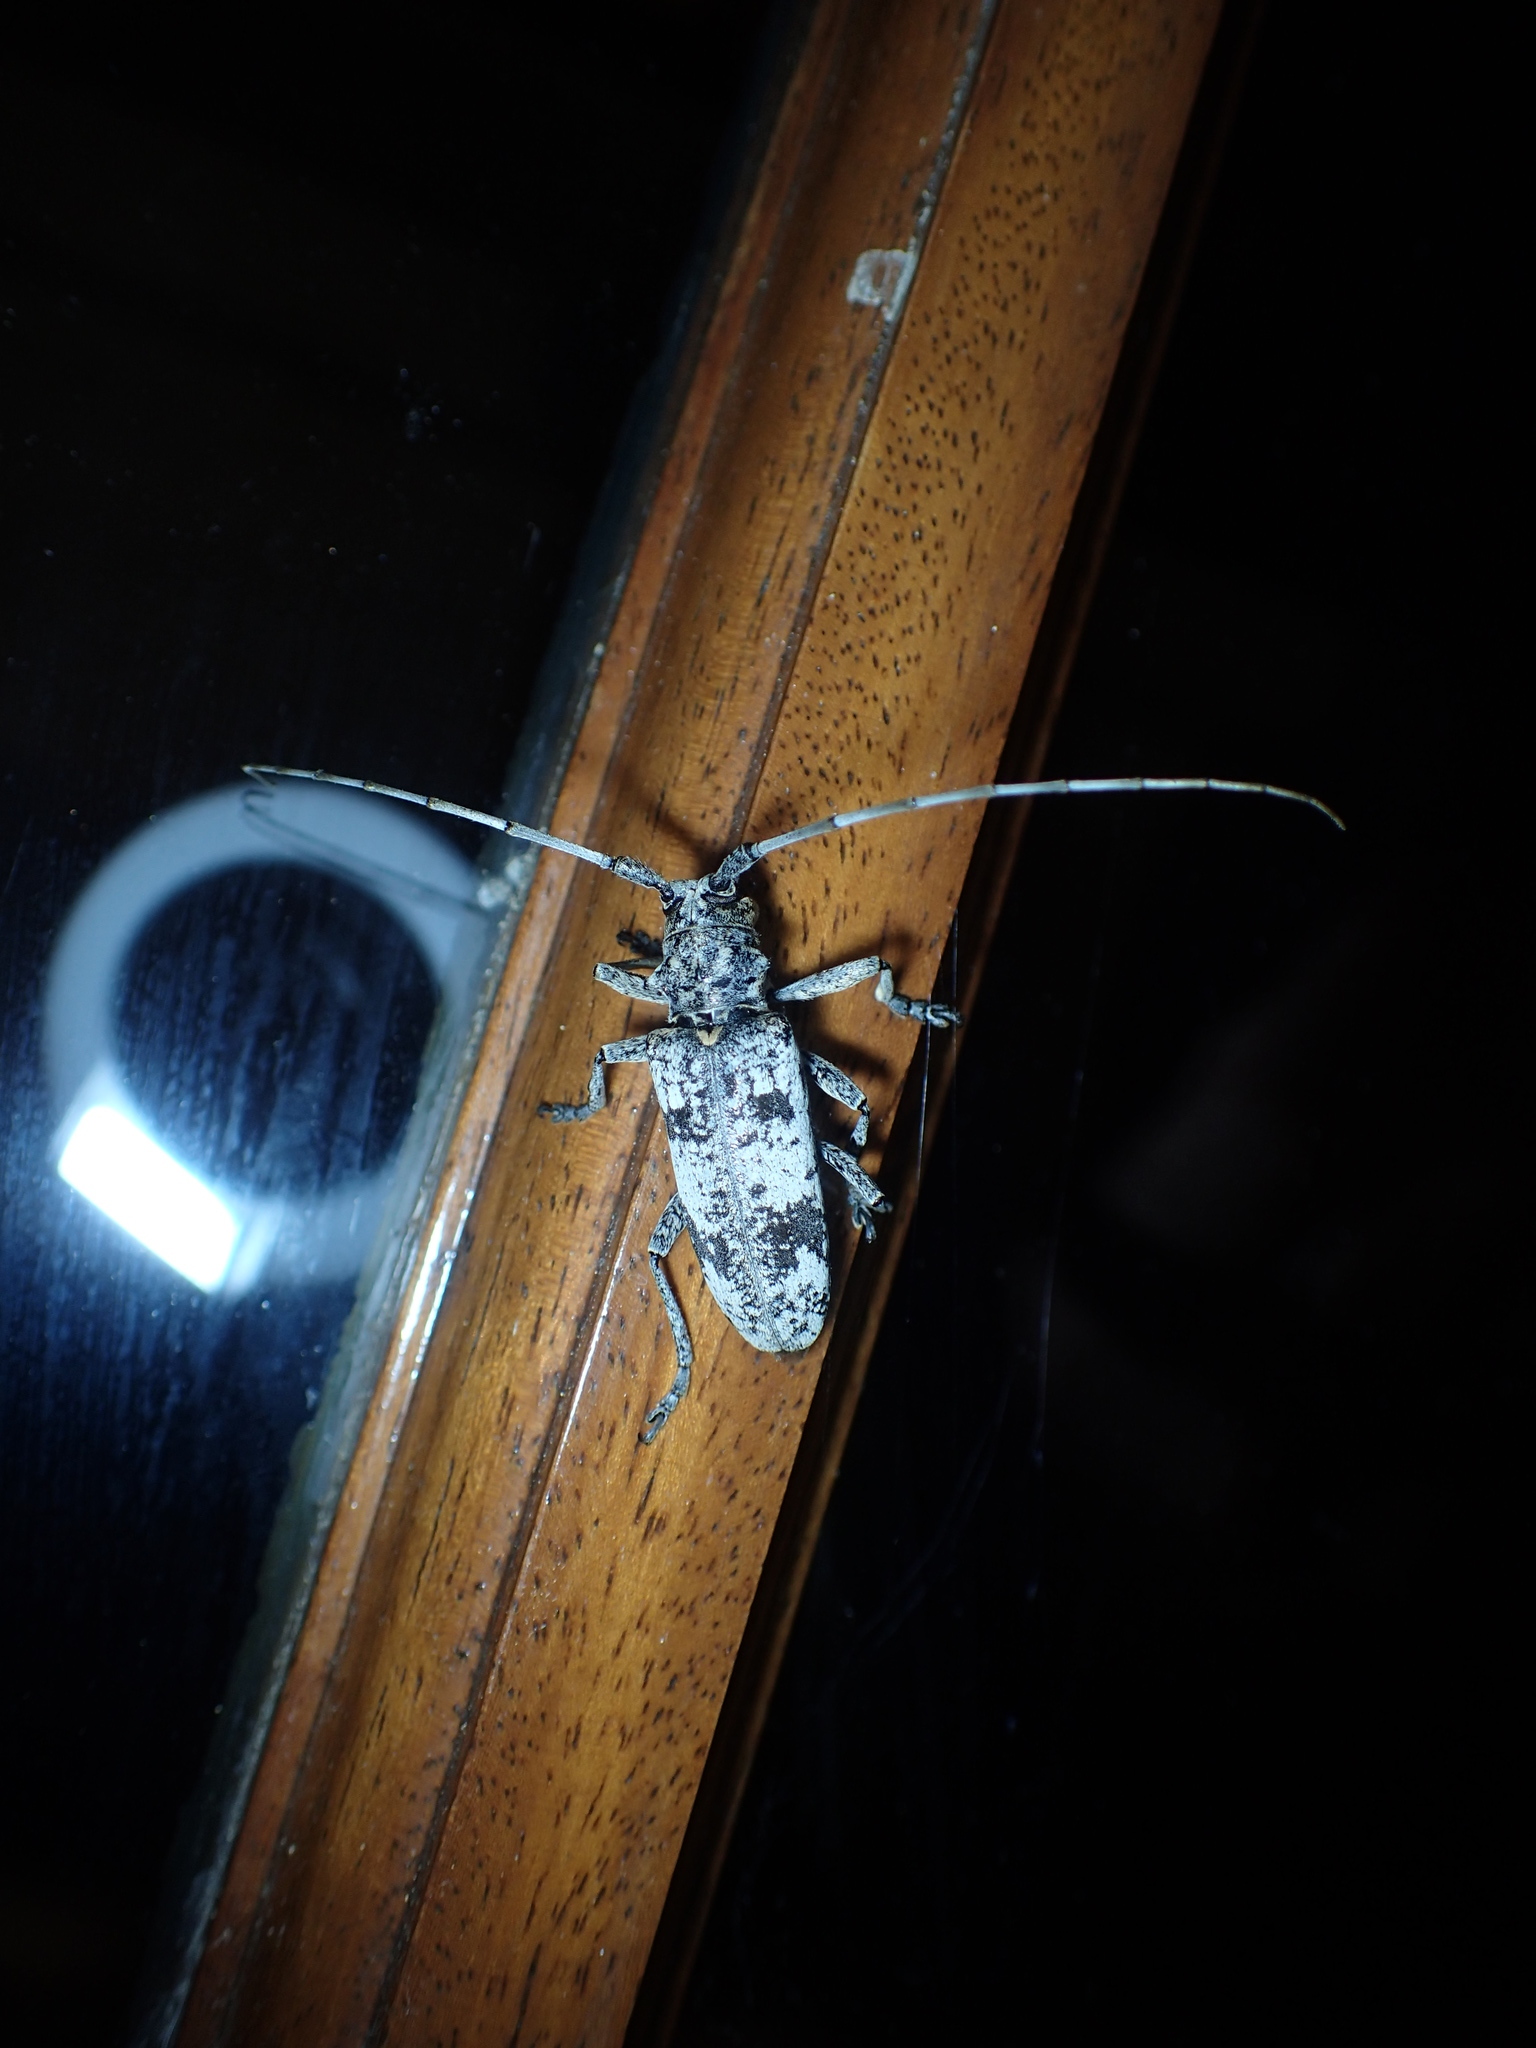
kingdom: Animalia
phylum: Arthropoda
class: Insecta
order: Coleoptera
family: Cerambycidae
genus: Goes
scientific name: Goes tigrinus
